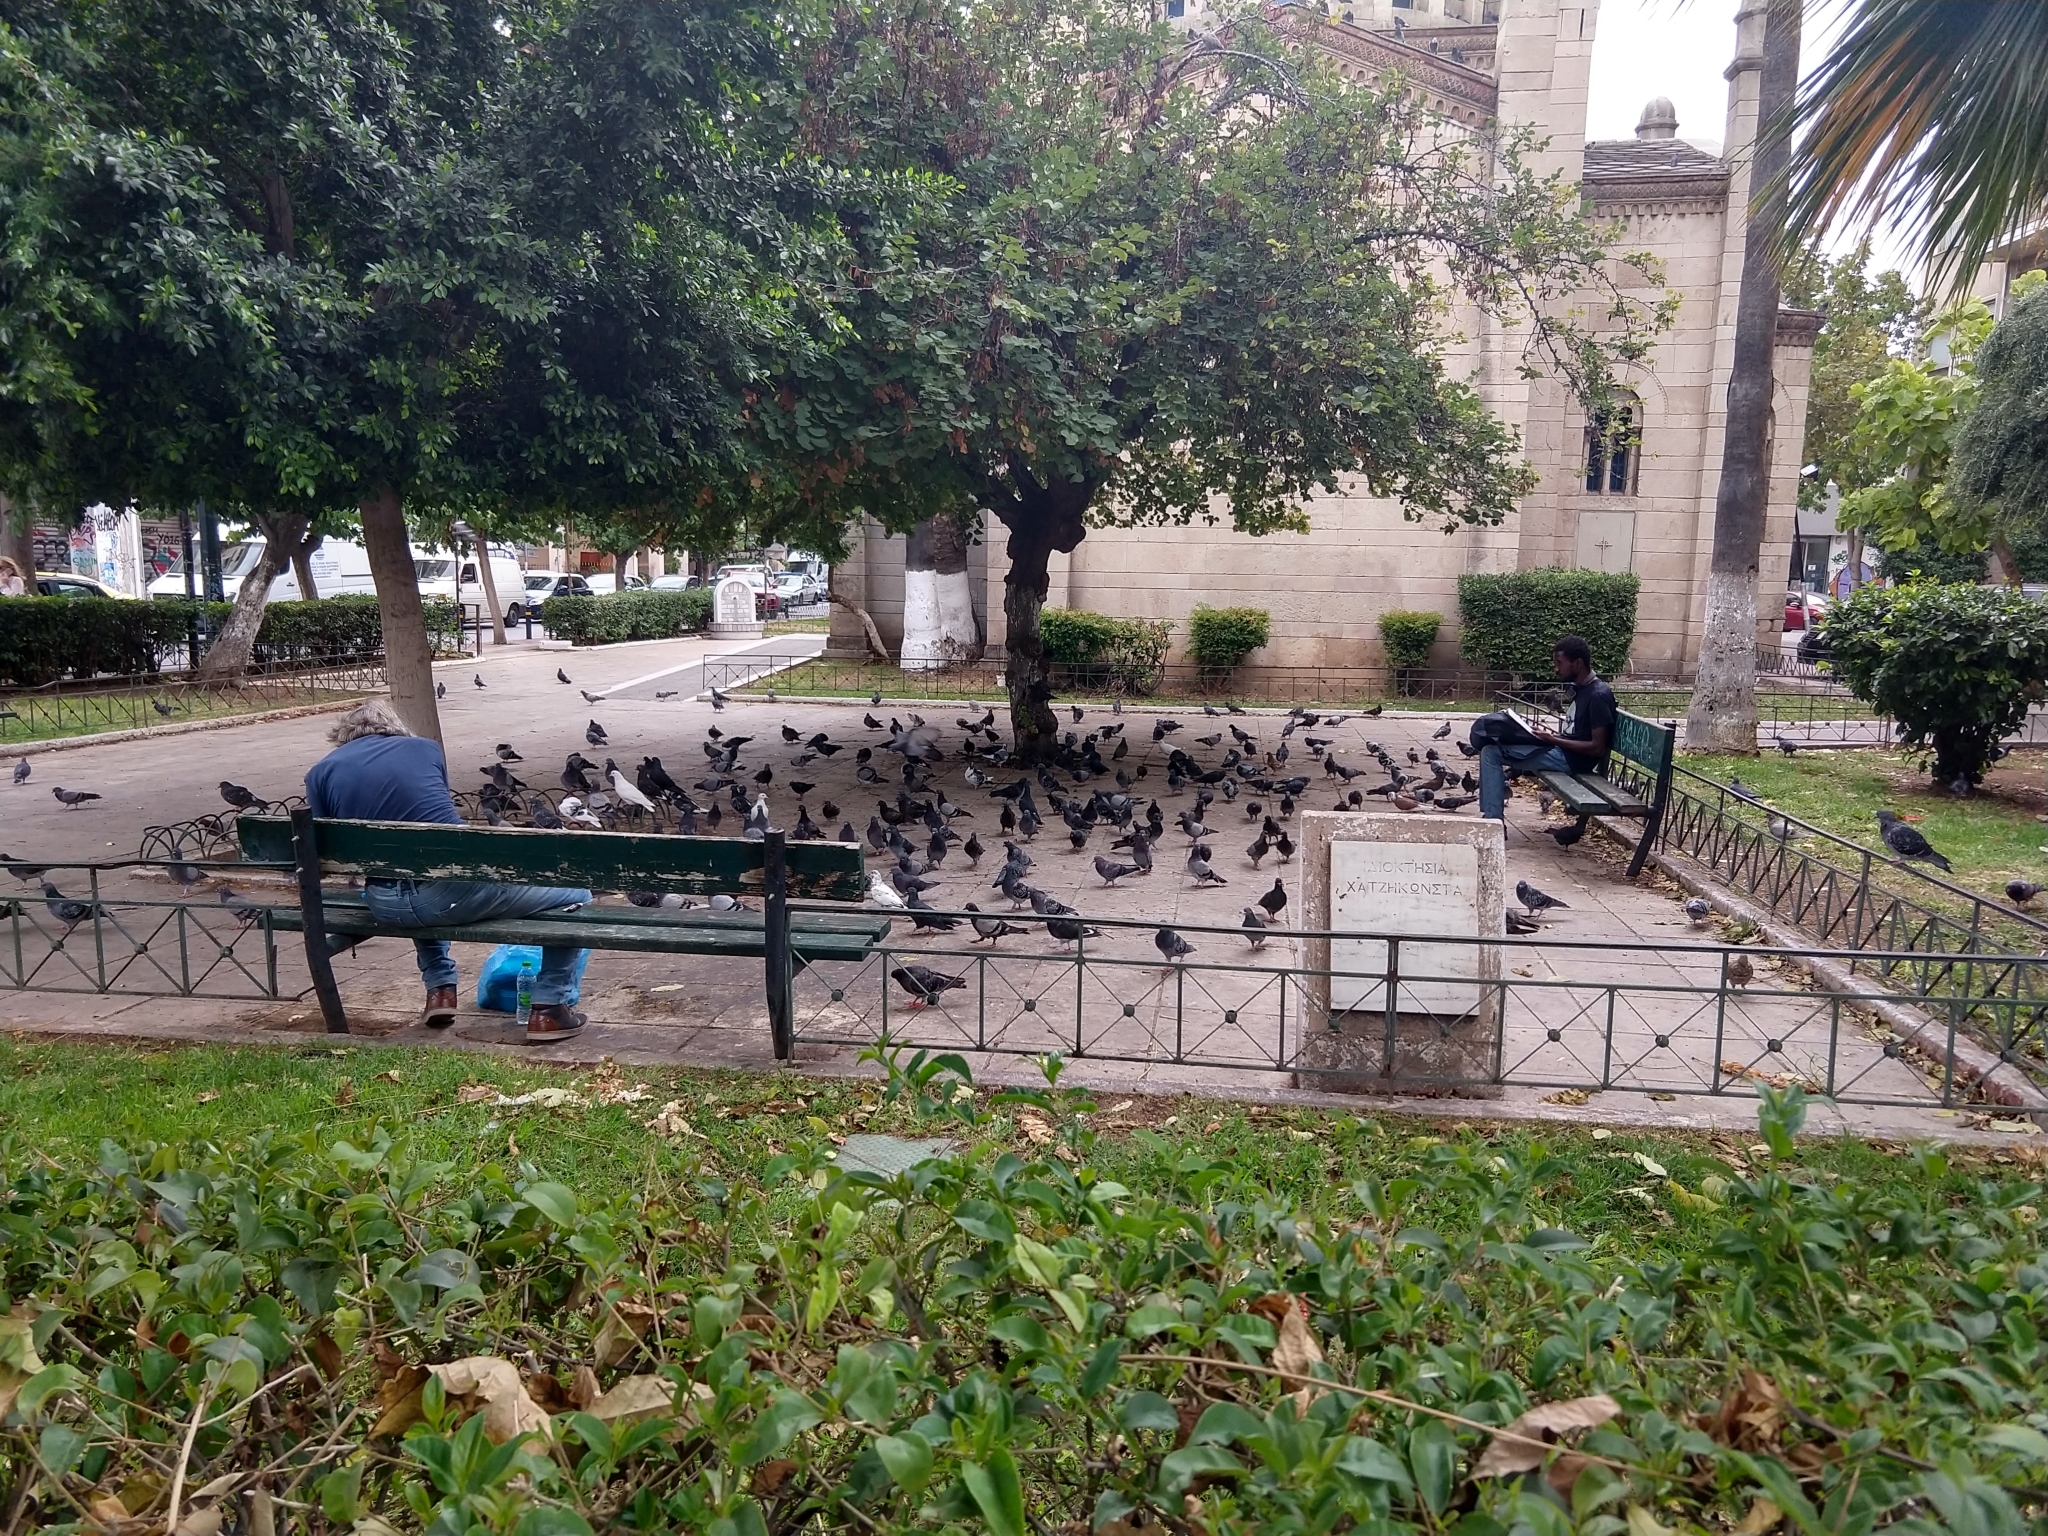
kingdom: Animalia
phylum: Chordata
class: Aves
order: Columbiformes
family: Columbidae
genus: Columba
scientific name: Columba livia
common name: Rock pigeon
